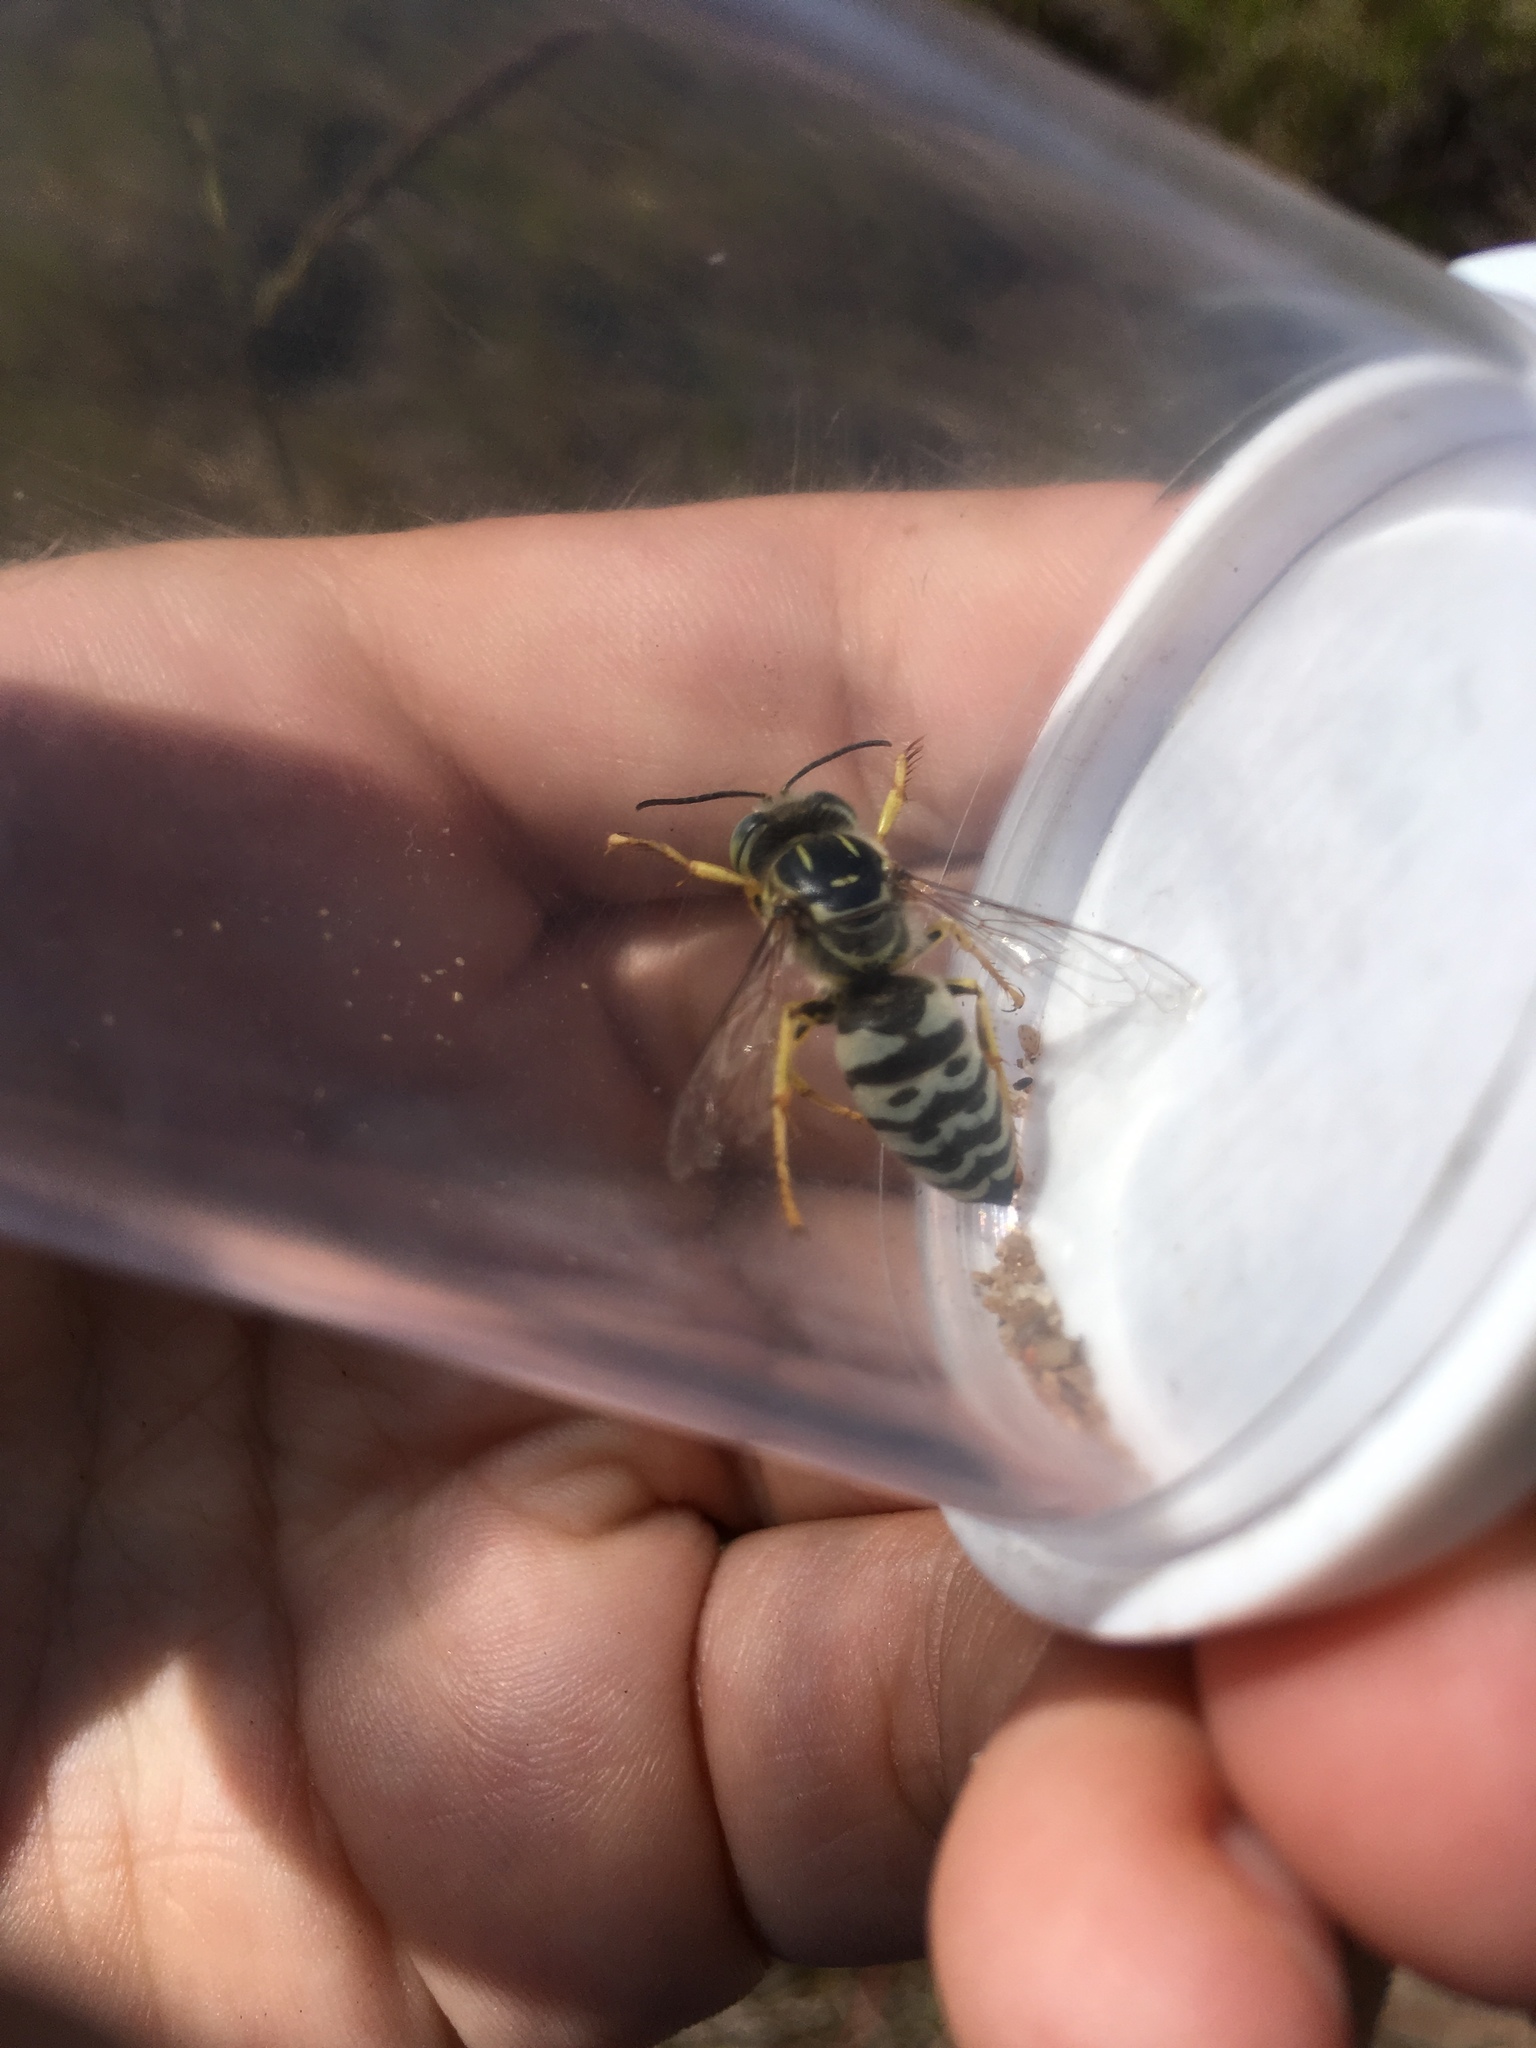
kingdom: Animalia
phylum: Arthropoda
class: Insecta
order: Hymenoptera
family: Crabronidae
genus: Bembix
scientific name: Bembix sayi
